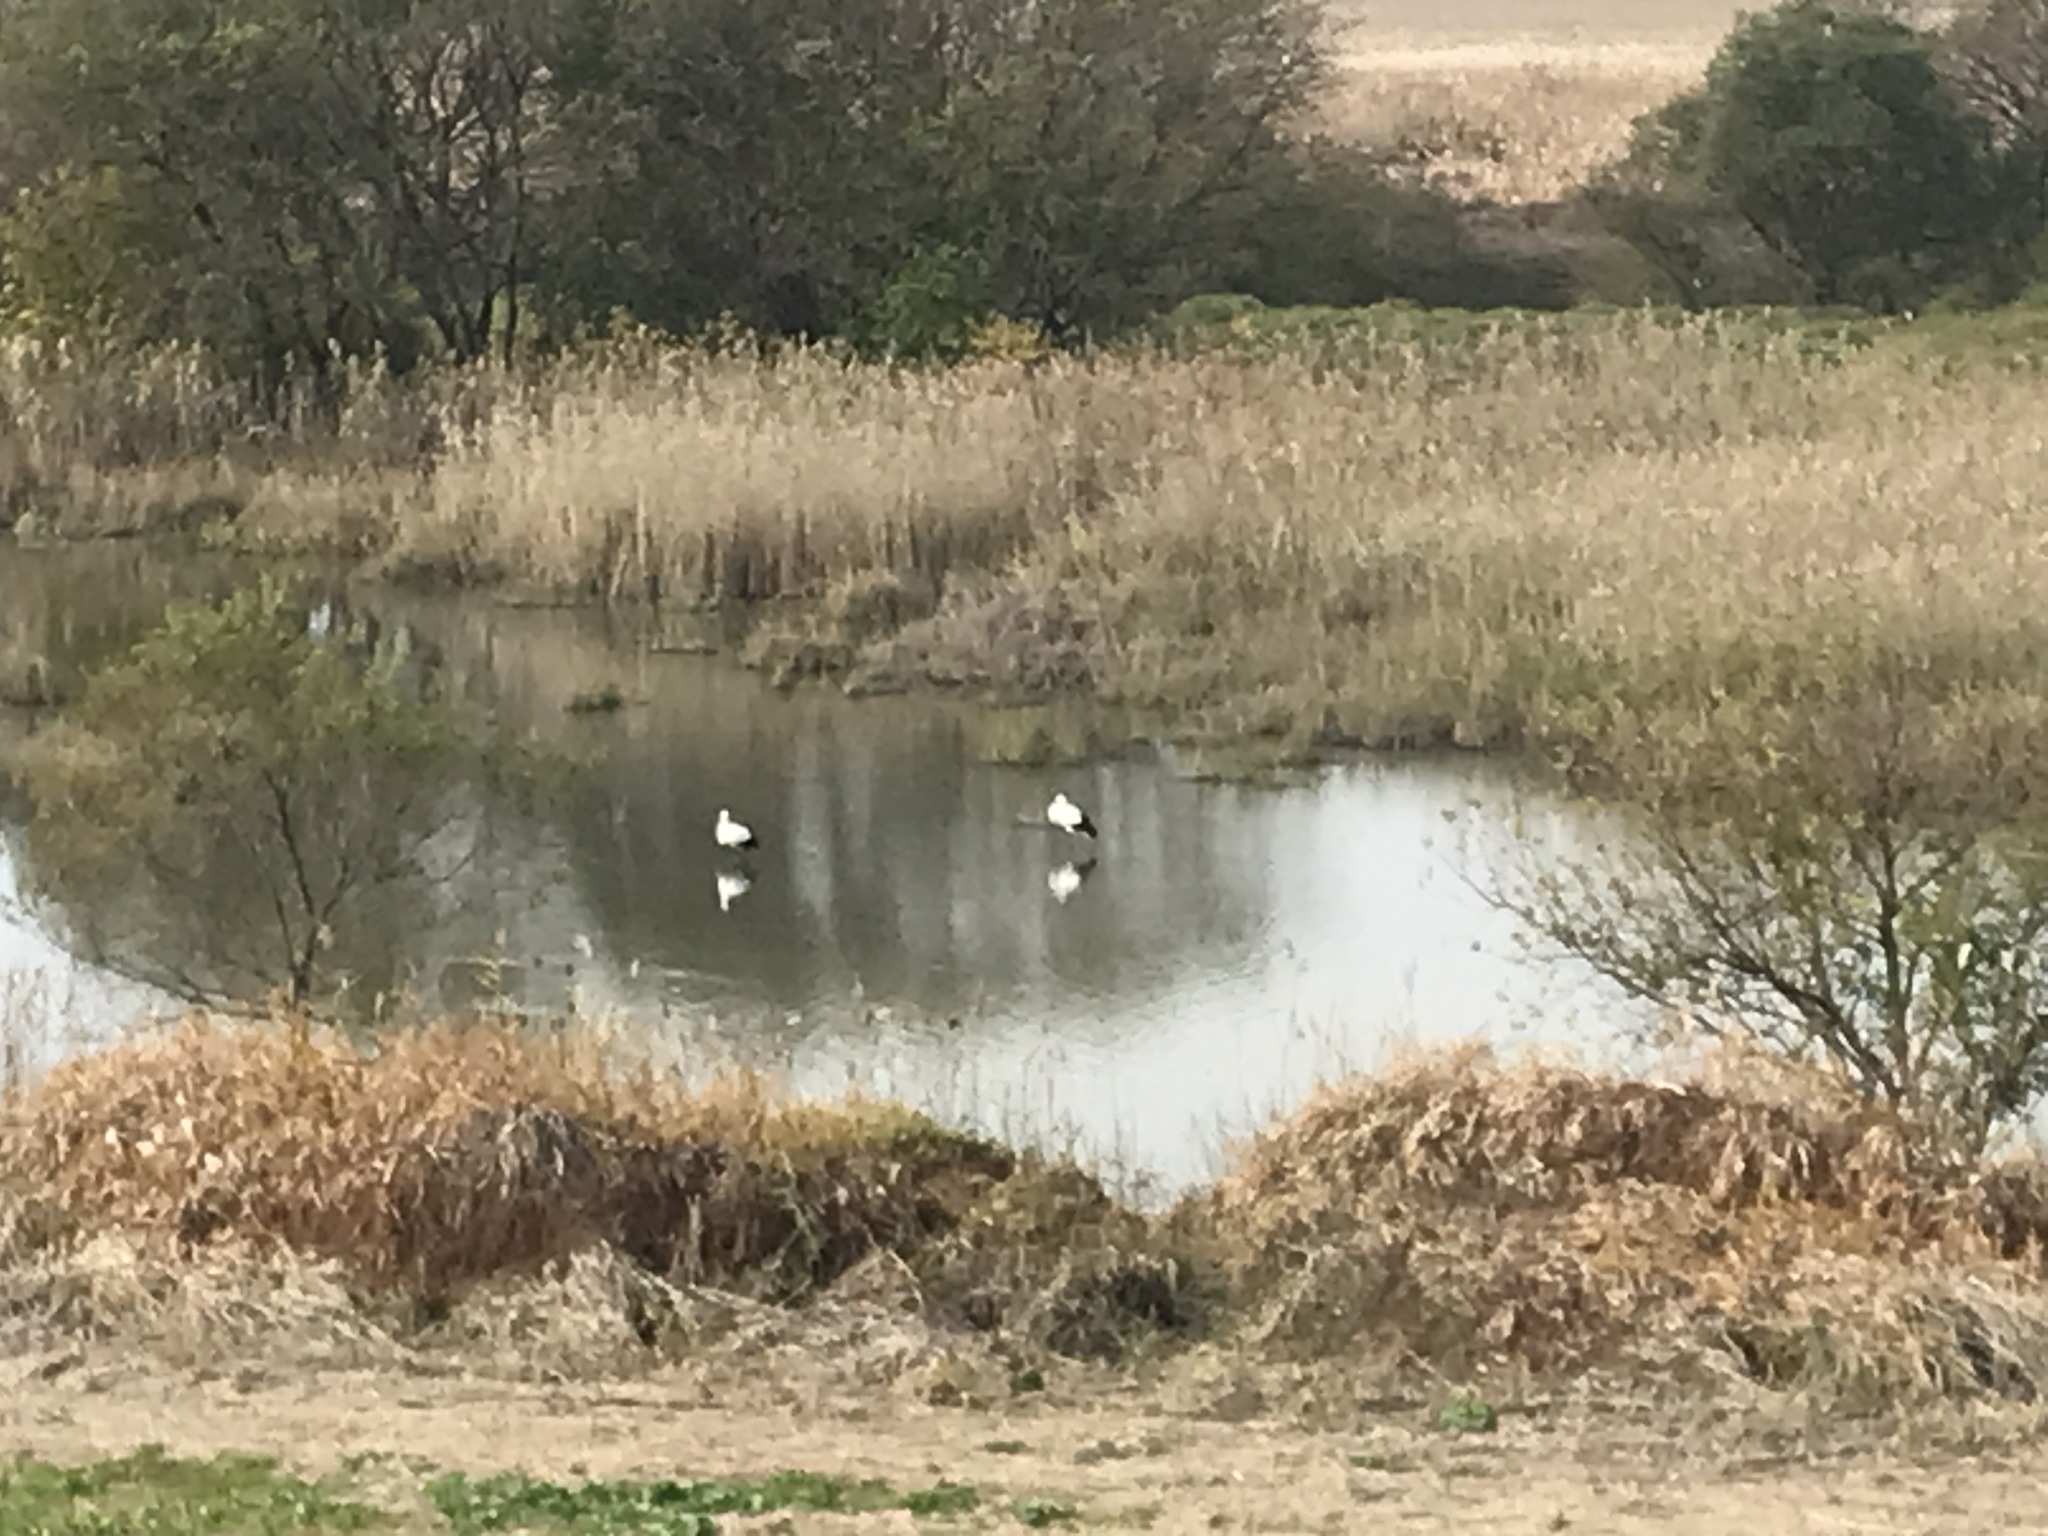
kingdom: Animalia
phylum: Chordata
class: Aves
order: Ciconiiformes
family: Ciconiidae
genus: Ciconia
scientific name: Ciconia boyciana
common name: Oriental stork
